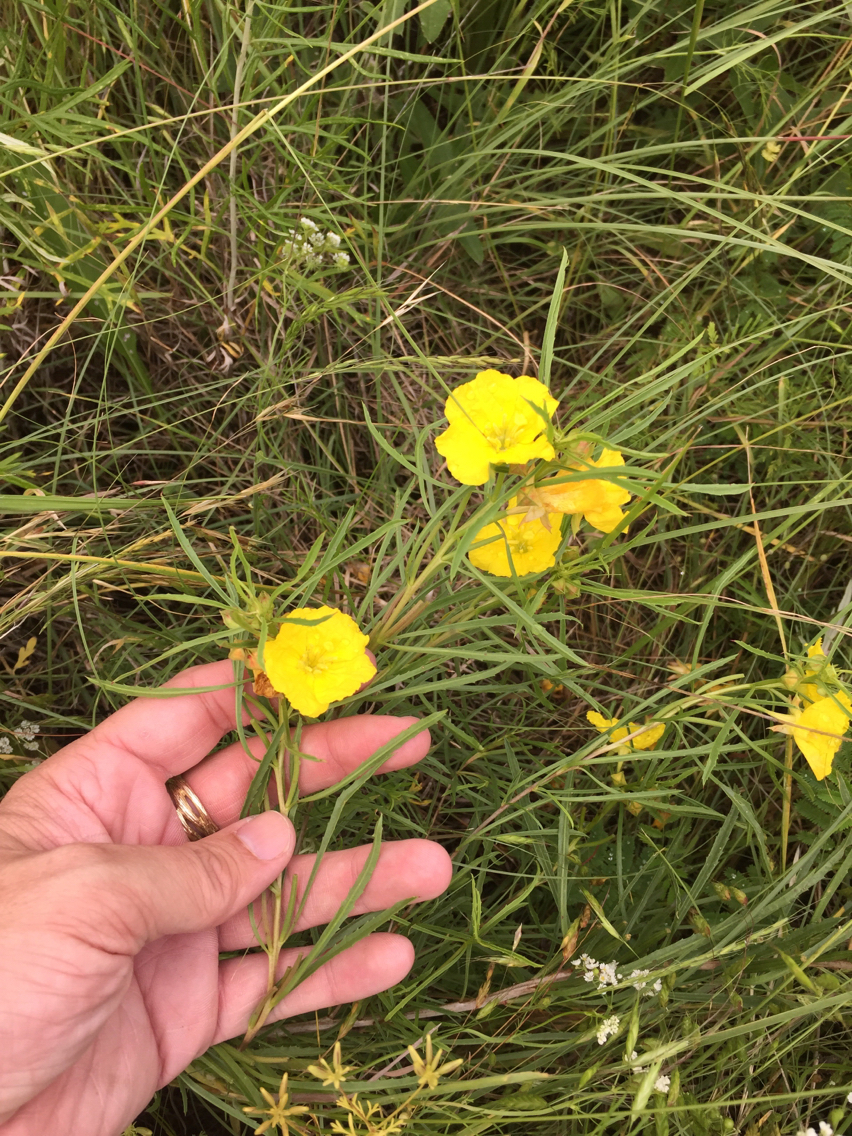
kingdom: Plantae
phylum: Tracheophyta
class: Magnoliopsida
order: Myrtales
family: Onagraceae
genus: Oenothera
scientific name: Oenothera
